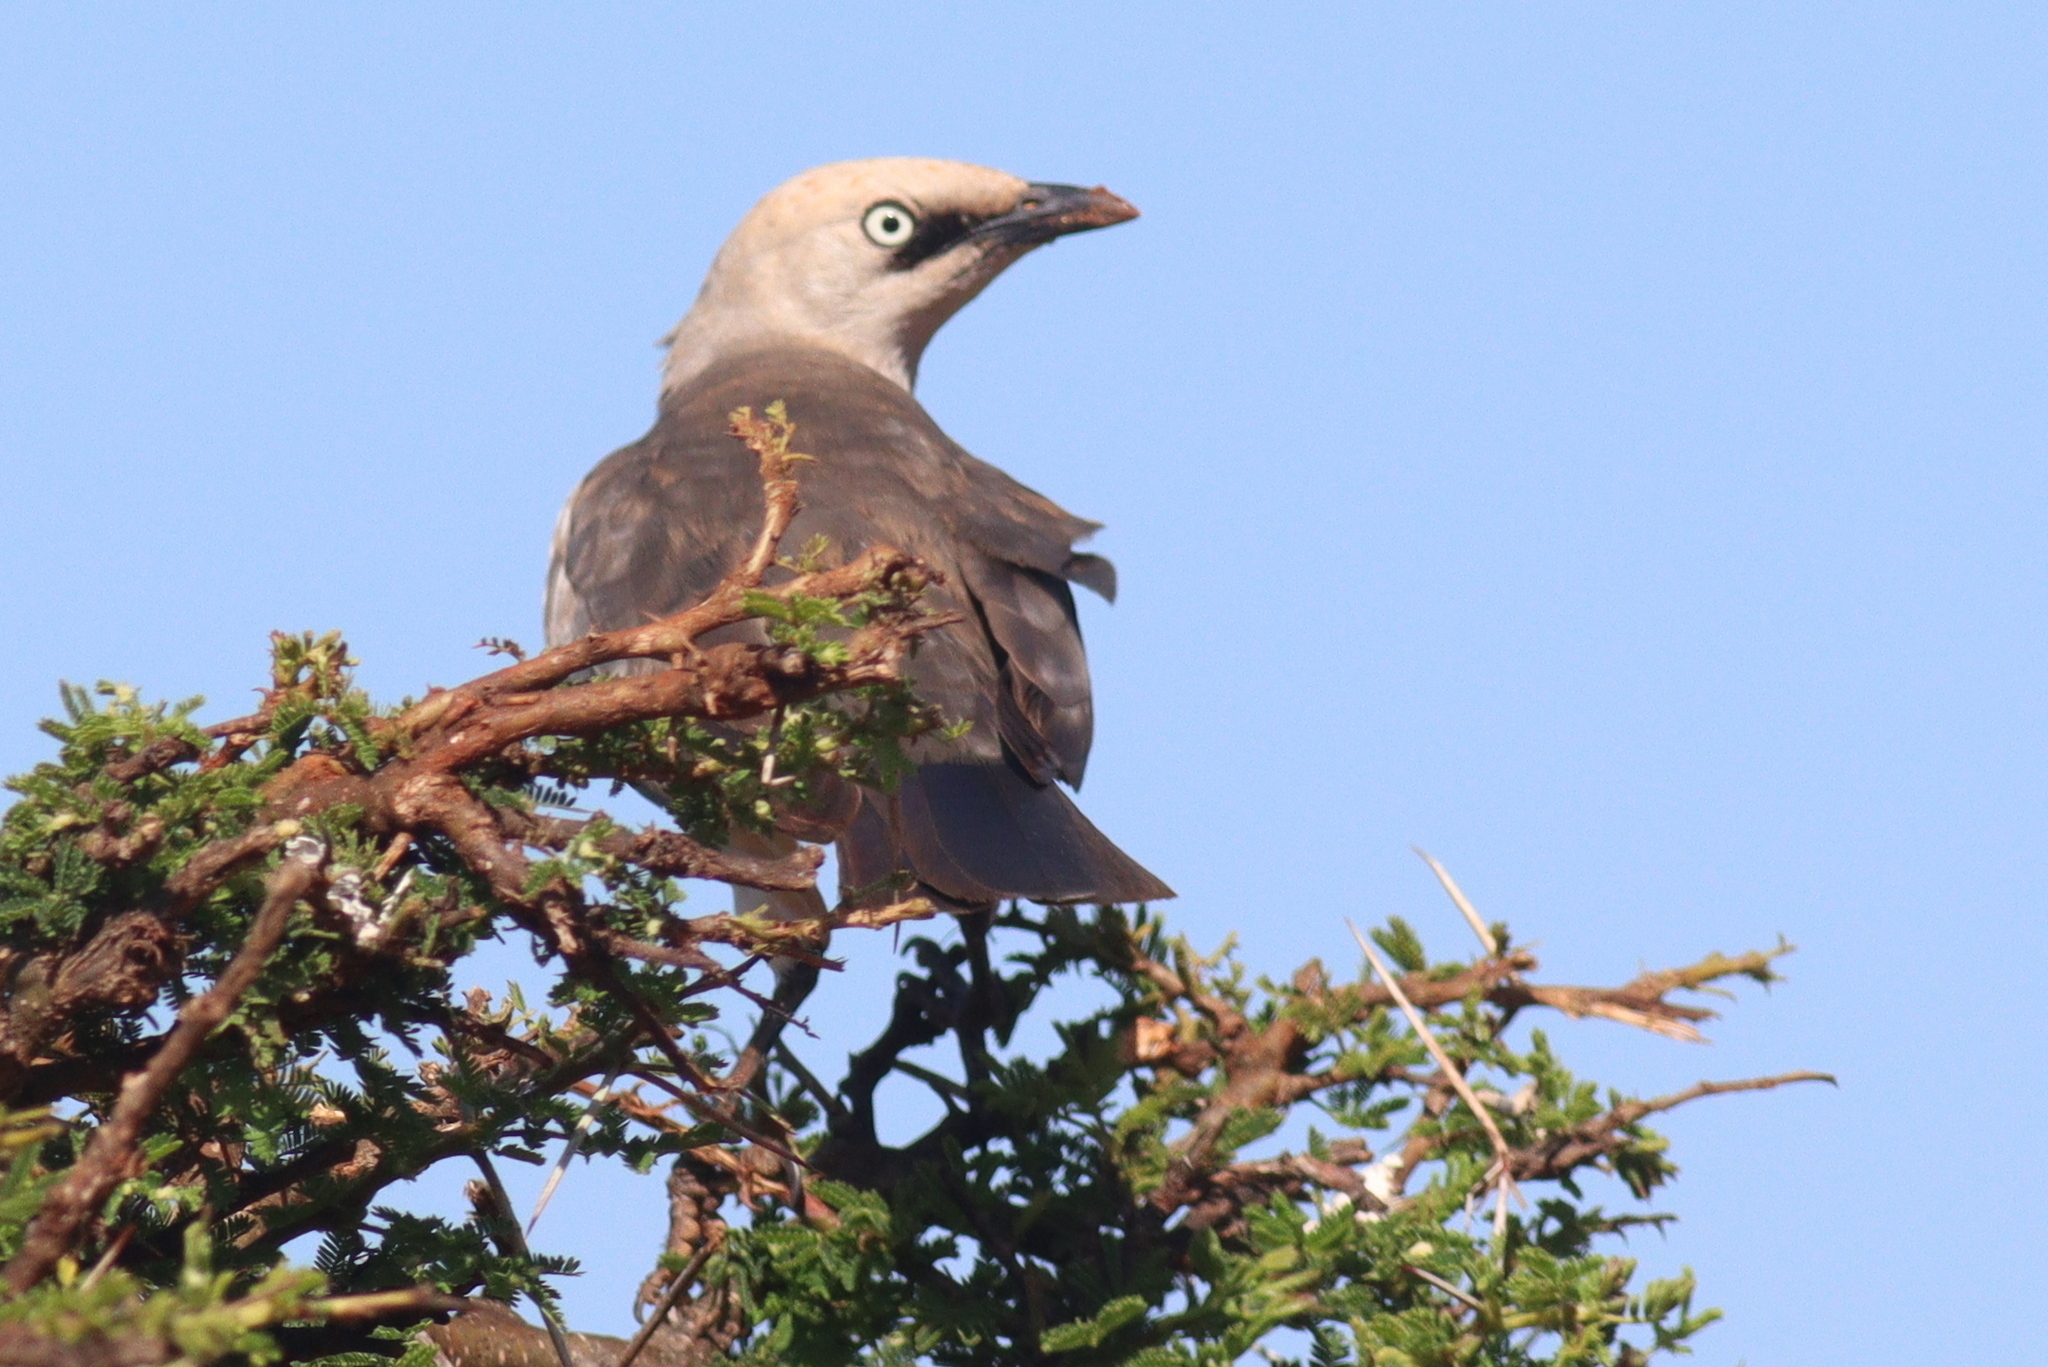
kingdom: Animalia
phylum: Chordata
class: Aves
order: Passeriformes
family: Sturnidae
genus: Lamprotornis
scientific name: Lamprotornis fischeri
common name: Fischer's starling
